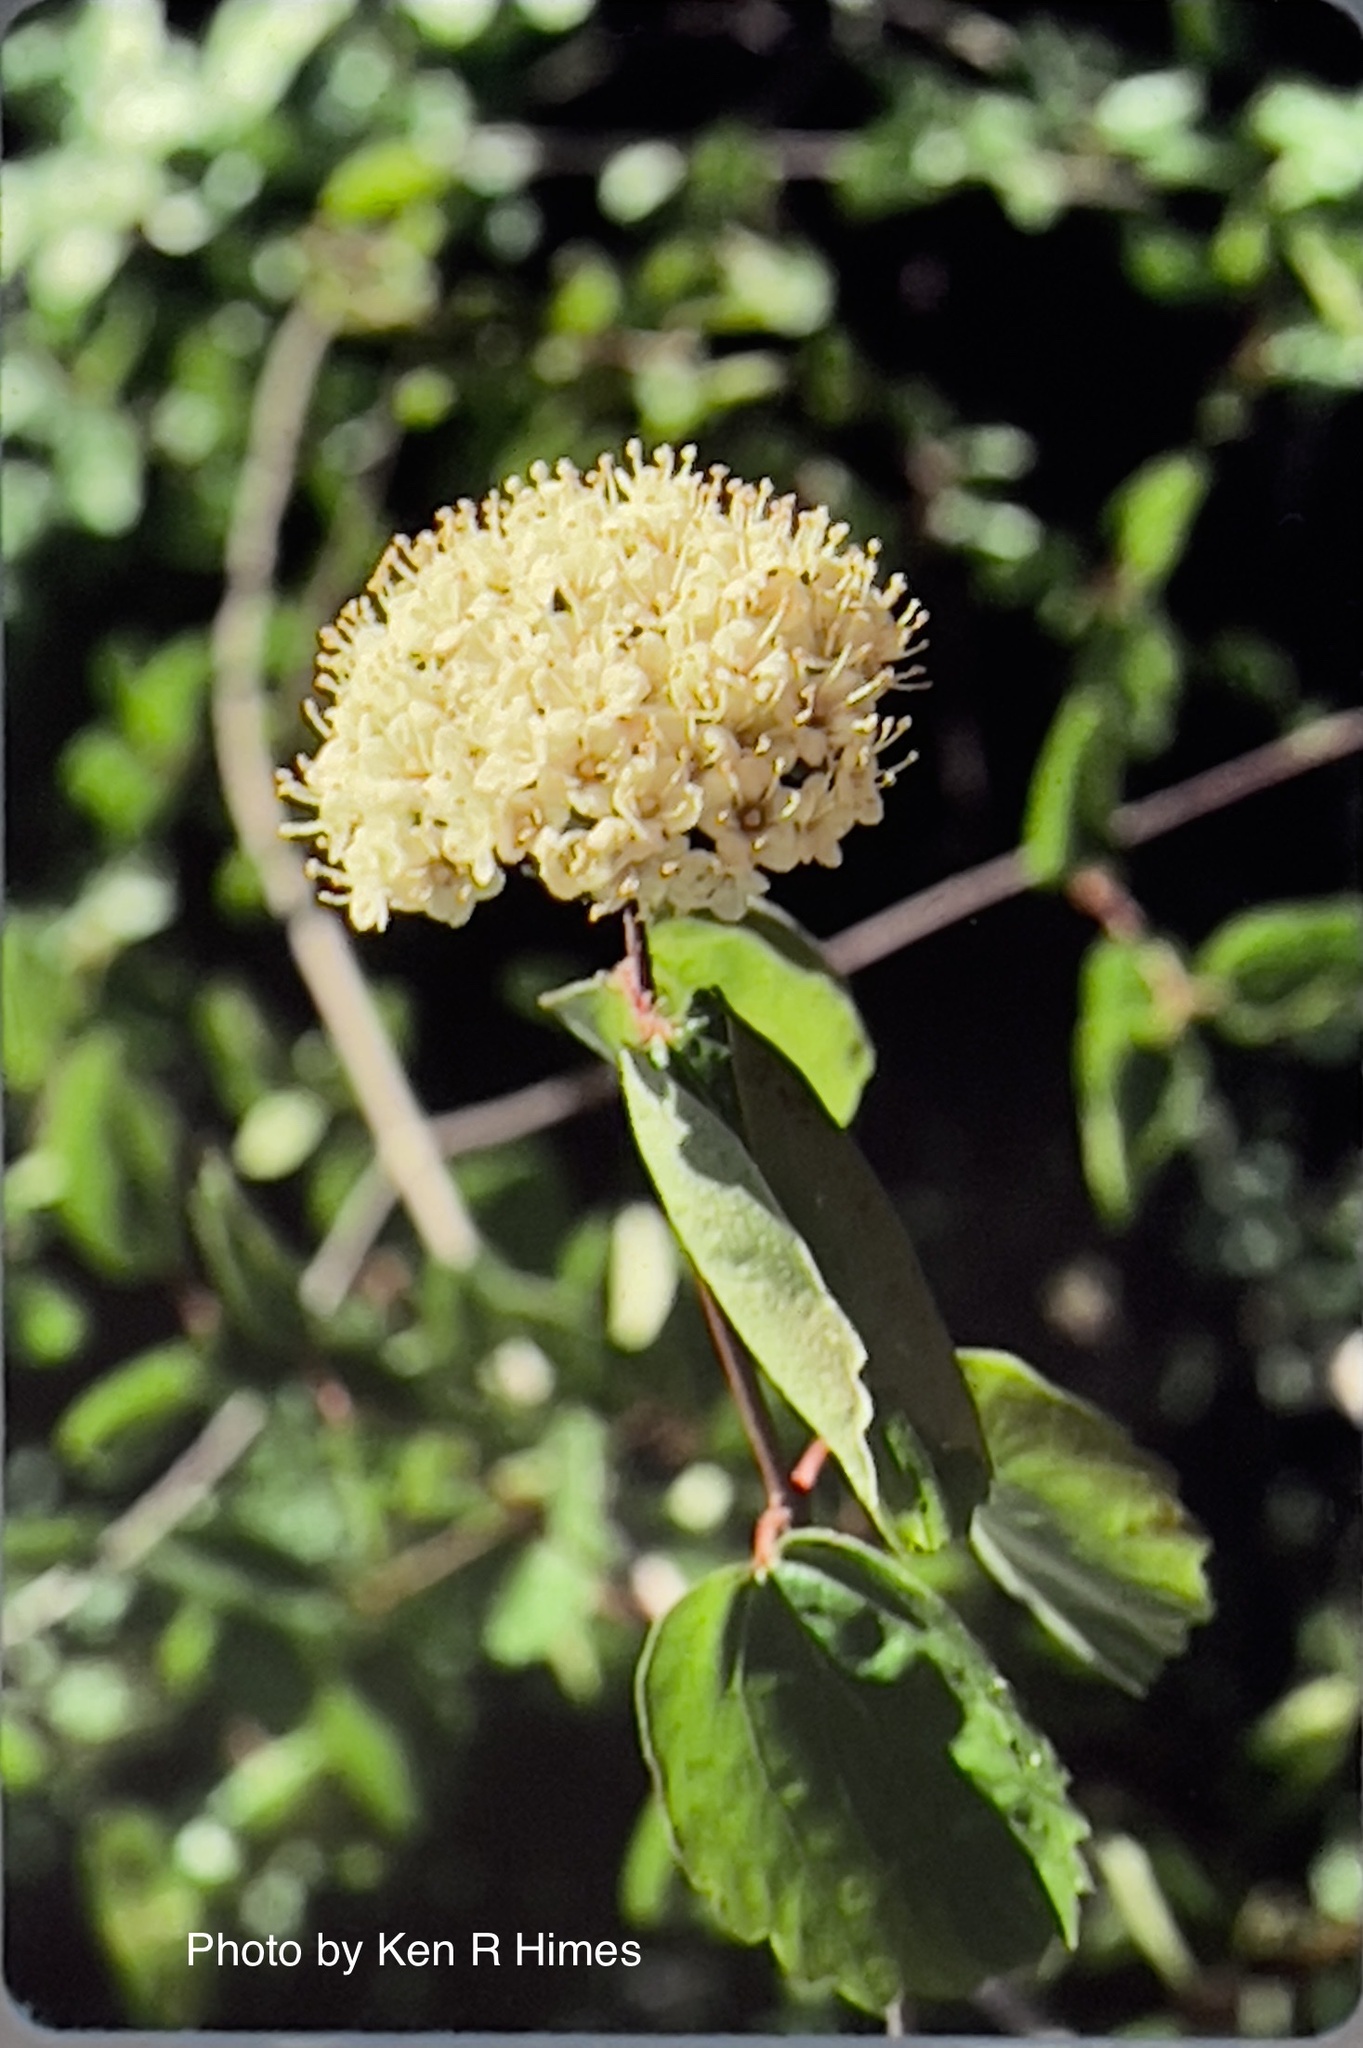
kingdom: Plantae
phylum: Tracheophyta
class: Magnoliopsida
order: Dipsacales
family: Viburnaceae
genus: Viburnum
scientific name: Viburnum ellipticum
